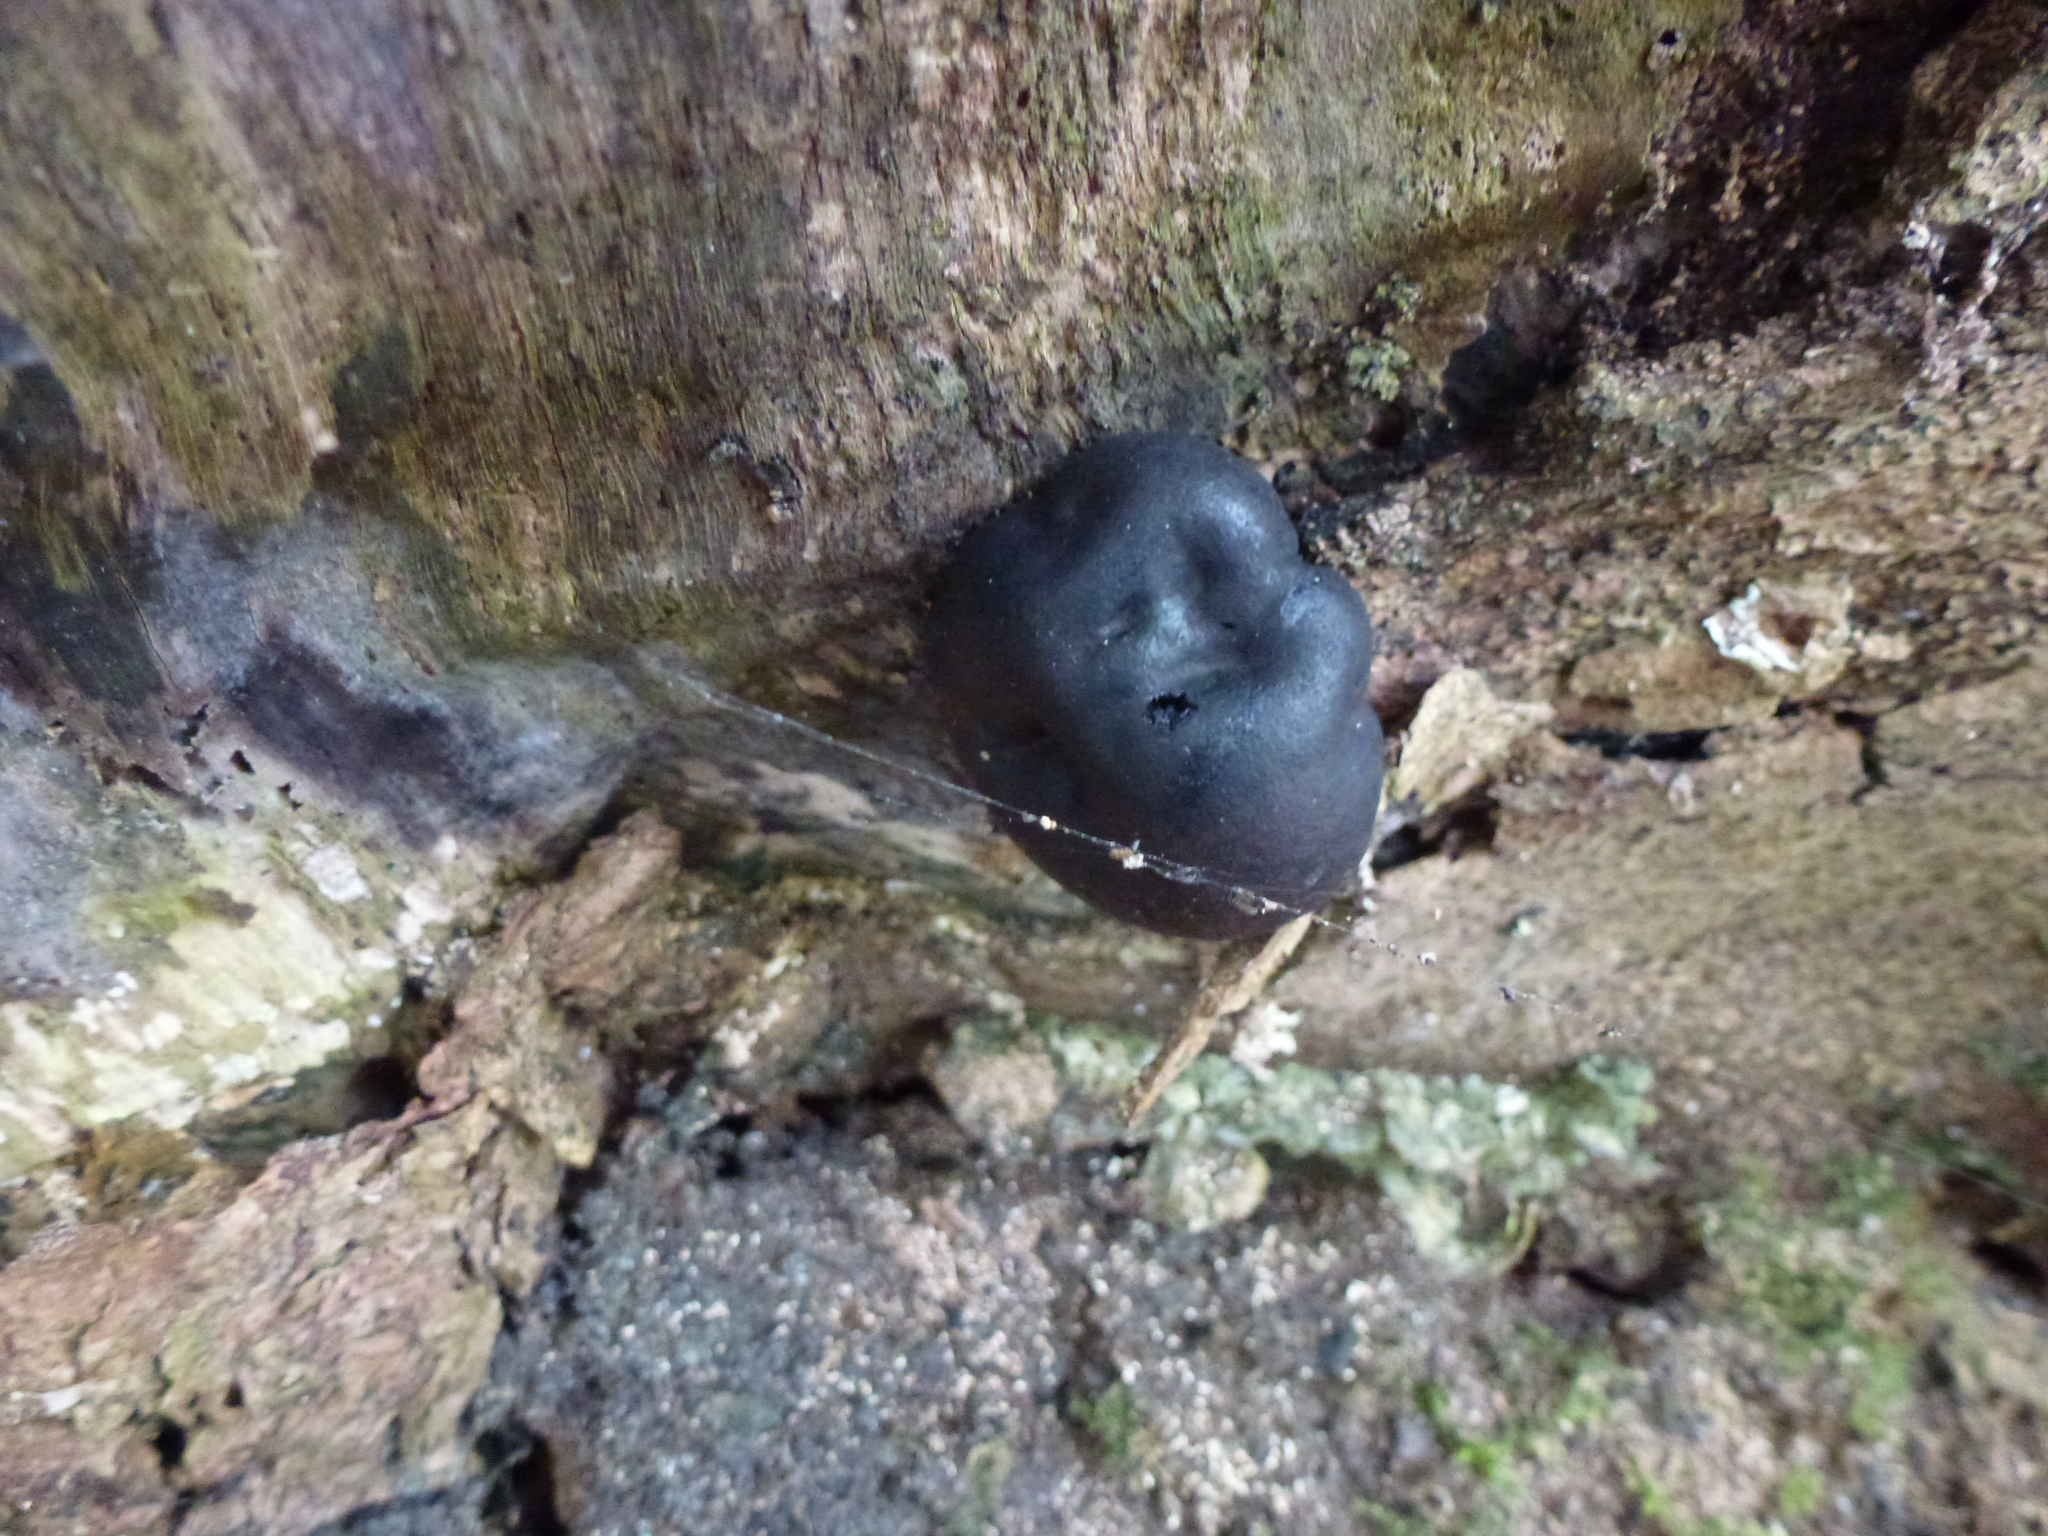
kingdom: Fungi
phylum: Ascomycota
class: Sordariomycetes
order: Xylariales
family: Hypoxylaceae
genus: Daldinia
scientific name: Daldinia concentrica
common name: Cramp balls
